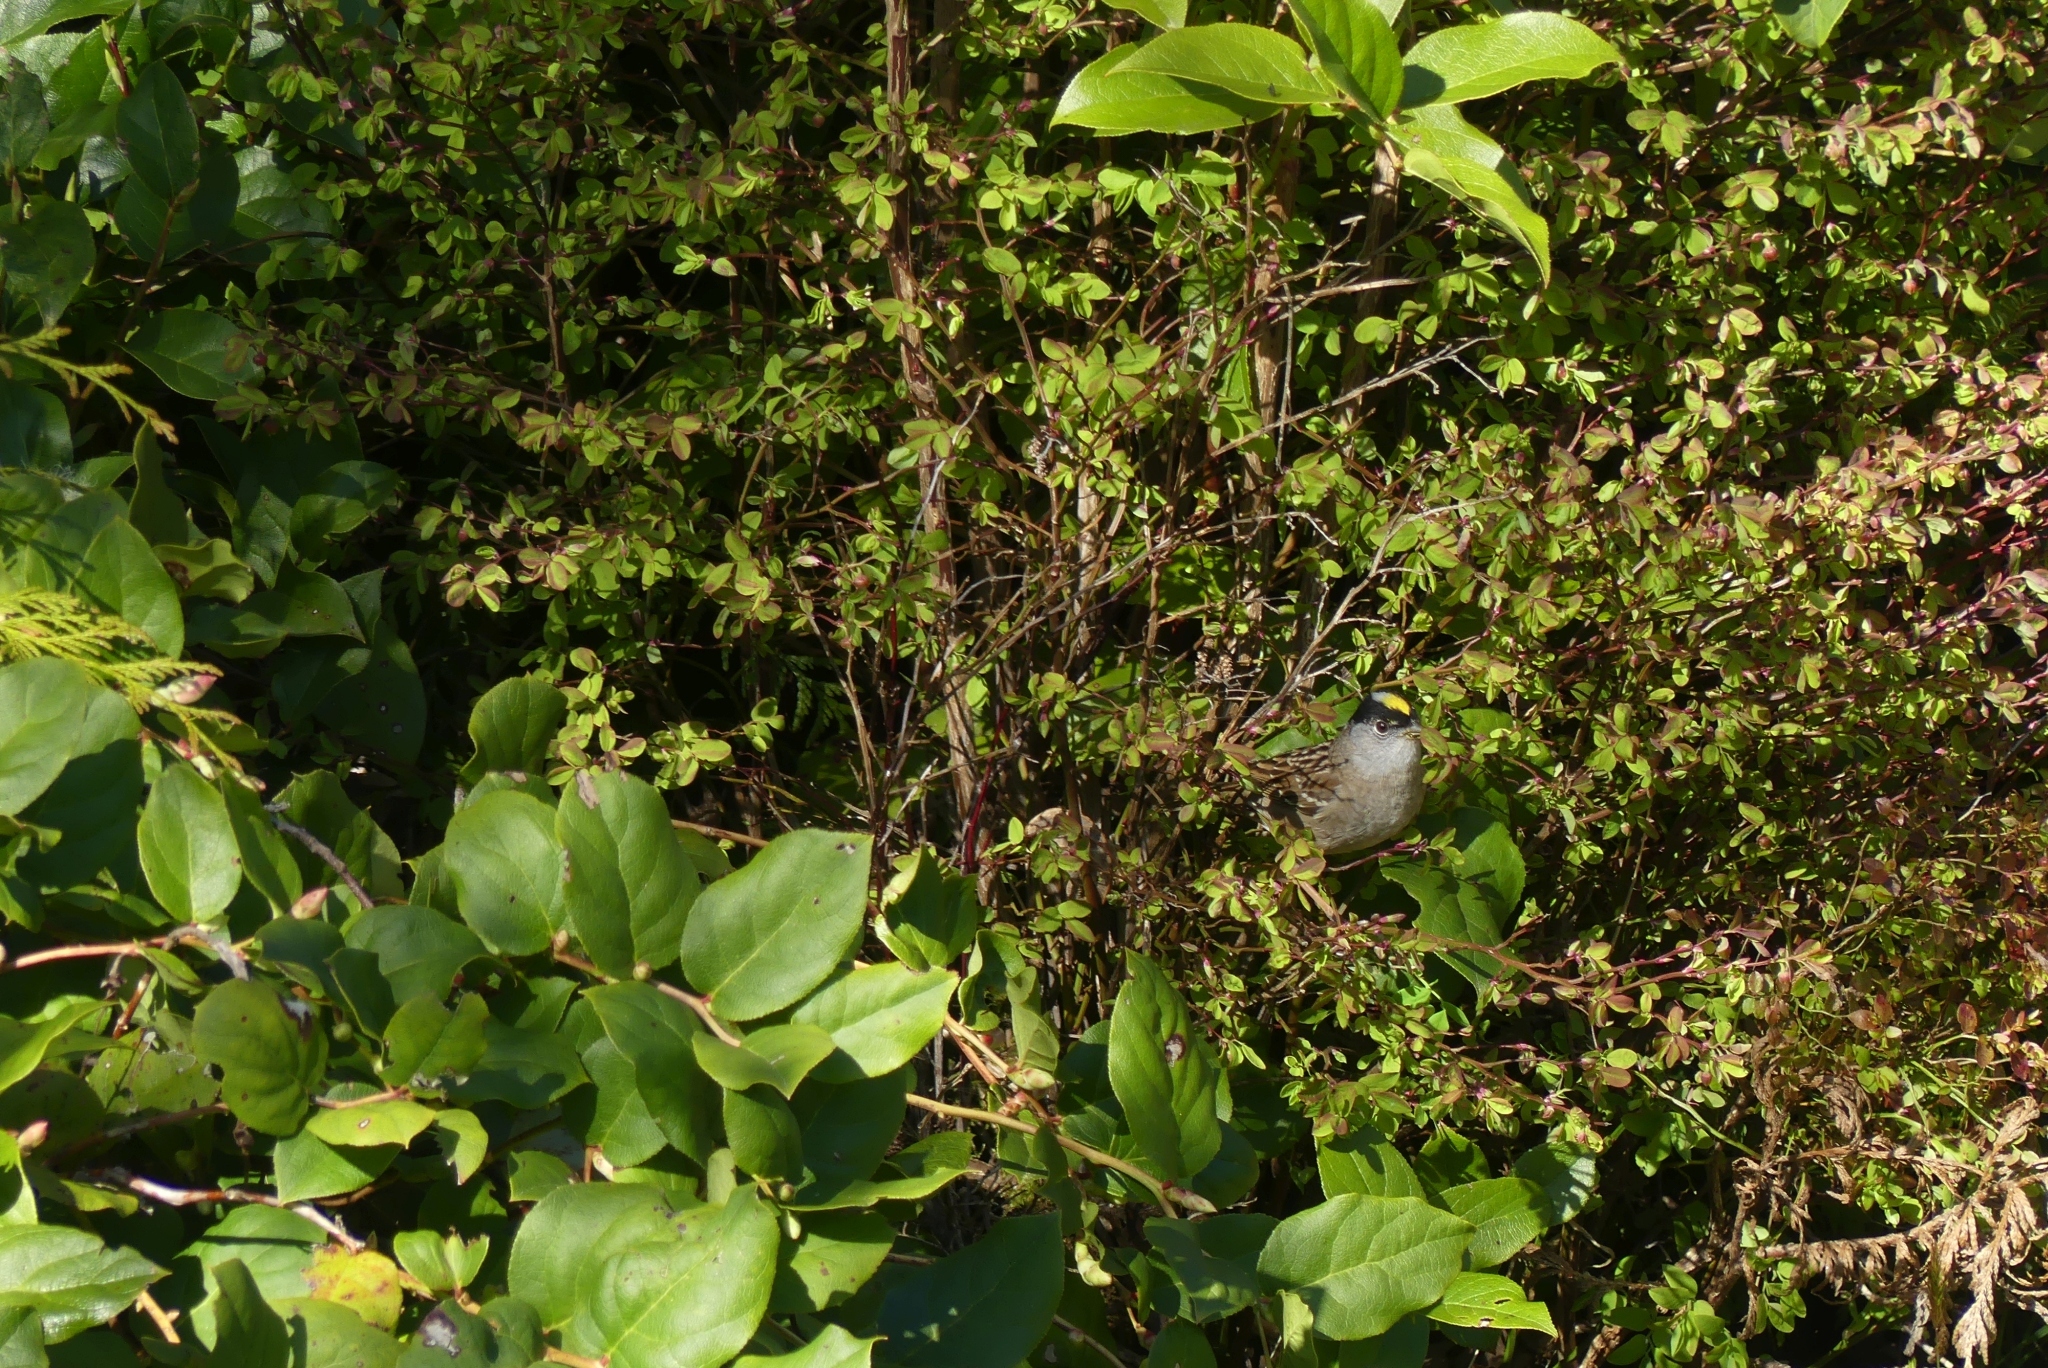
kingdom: Animalia
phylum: Chordata
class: Aves
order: Passeriformes
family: Passerellidae
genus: Zonotrichia
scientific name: Zonotrichia atricapilla
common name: Golden-crowned sparrow
